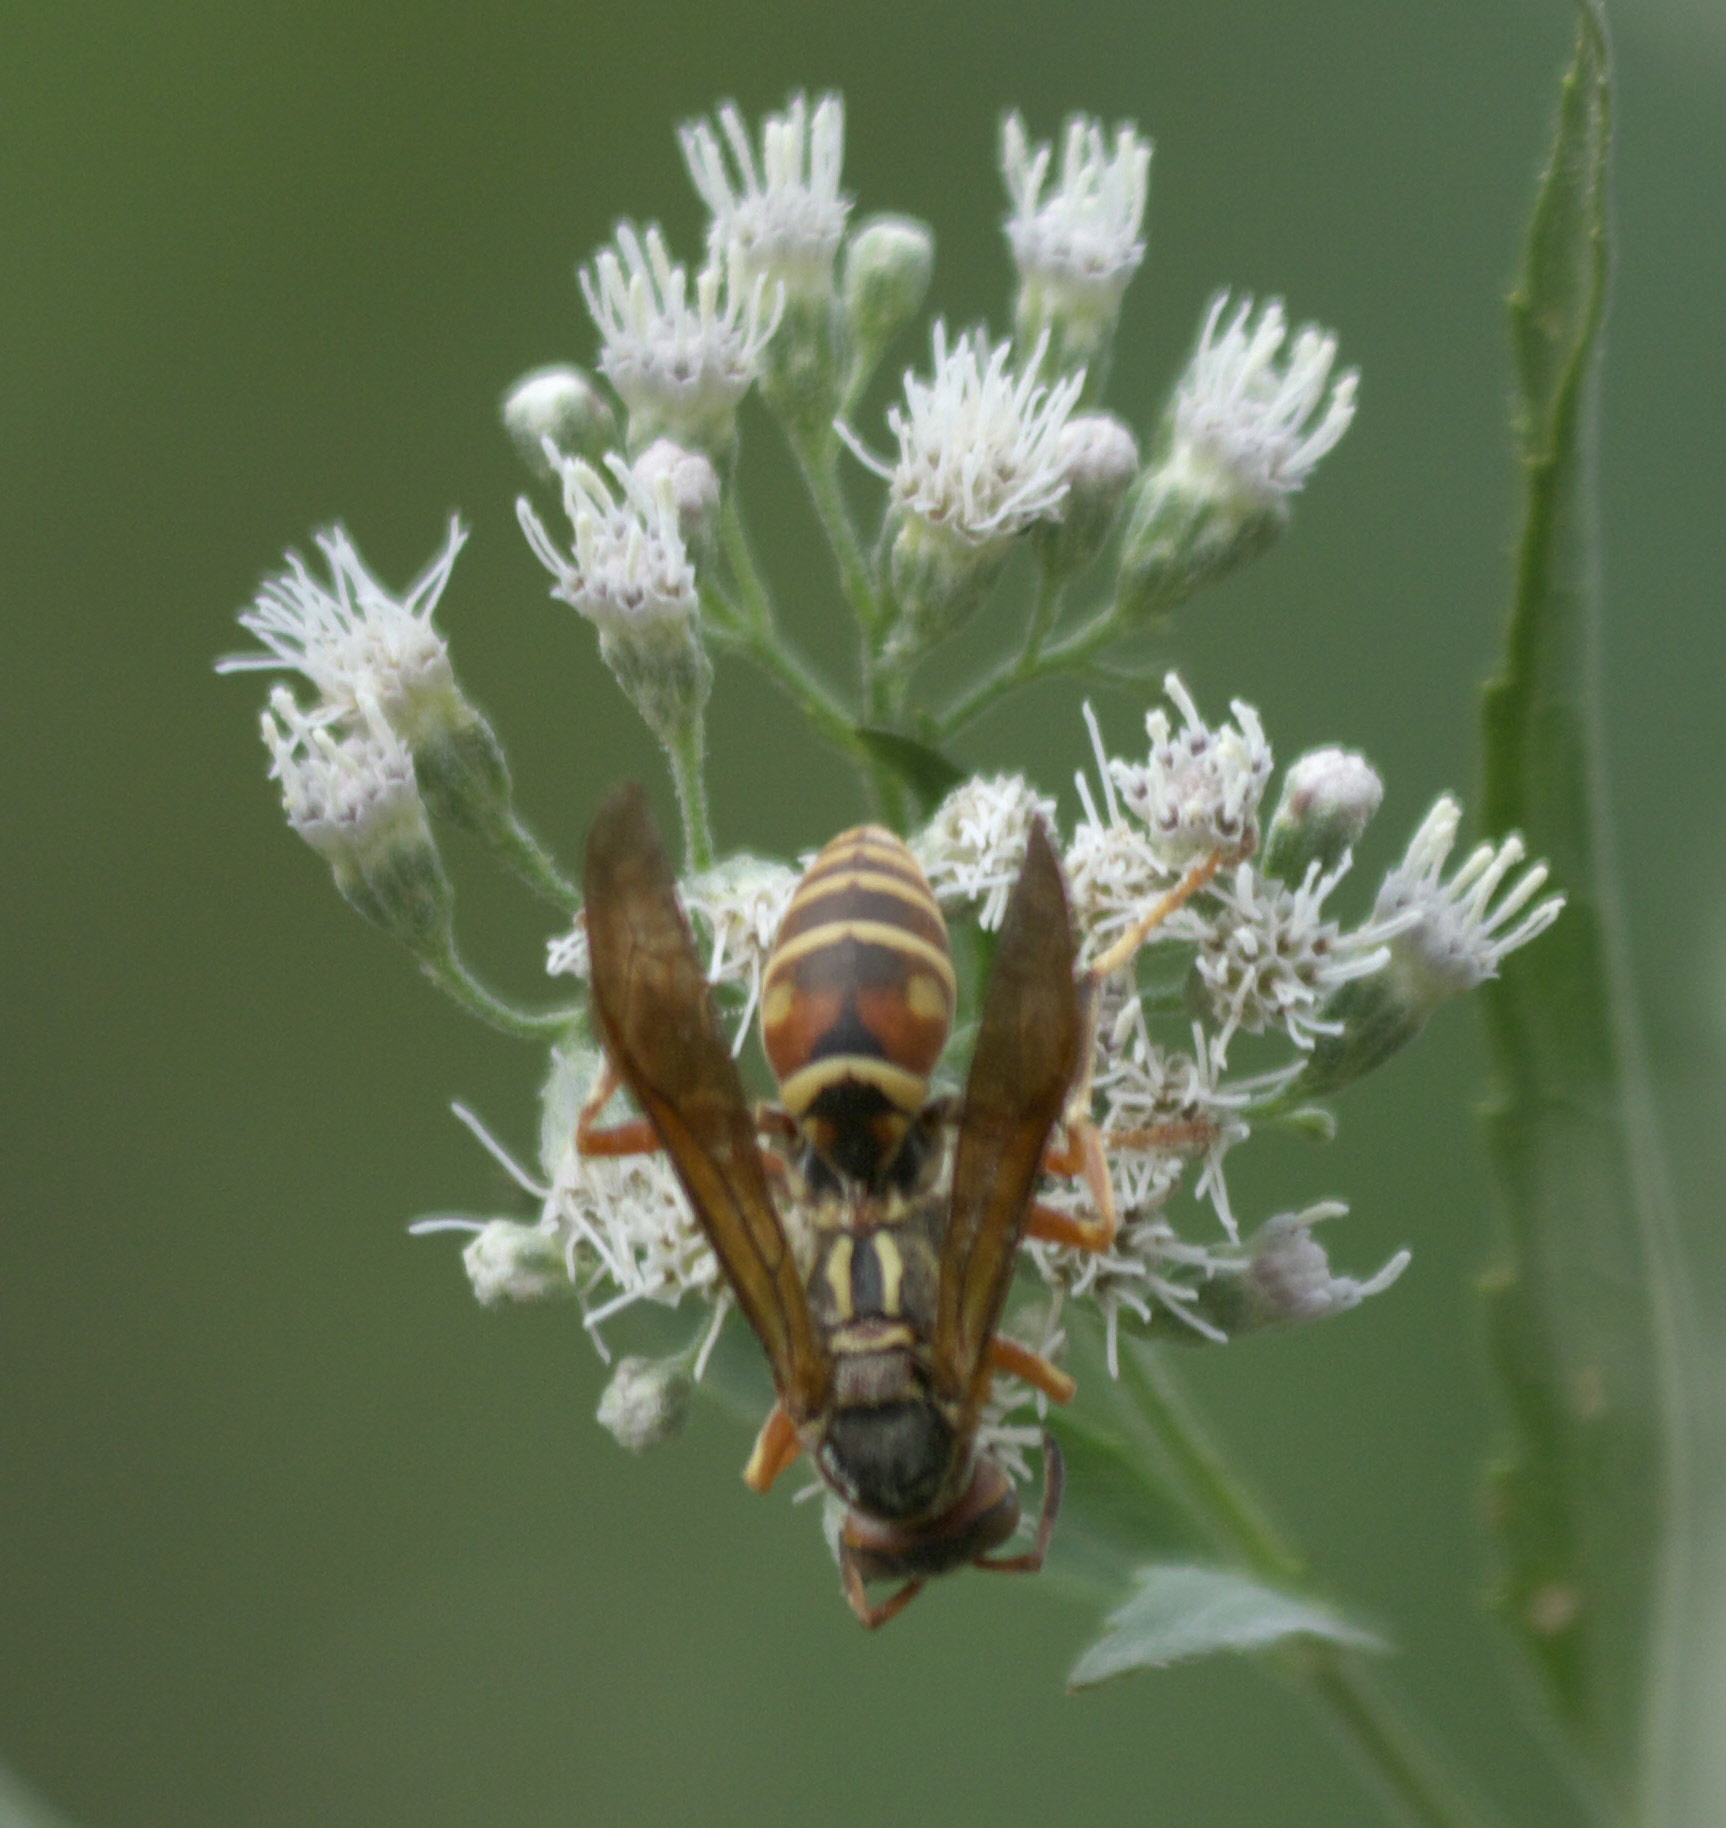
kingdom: Animalia
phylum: Arthropoda
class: Insecta
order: Hymenoptera
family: Eumenidae
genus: Polistes
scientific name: Polistes fuscatus
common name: Dark paper wasp
